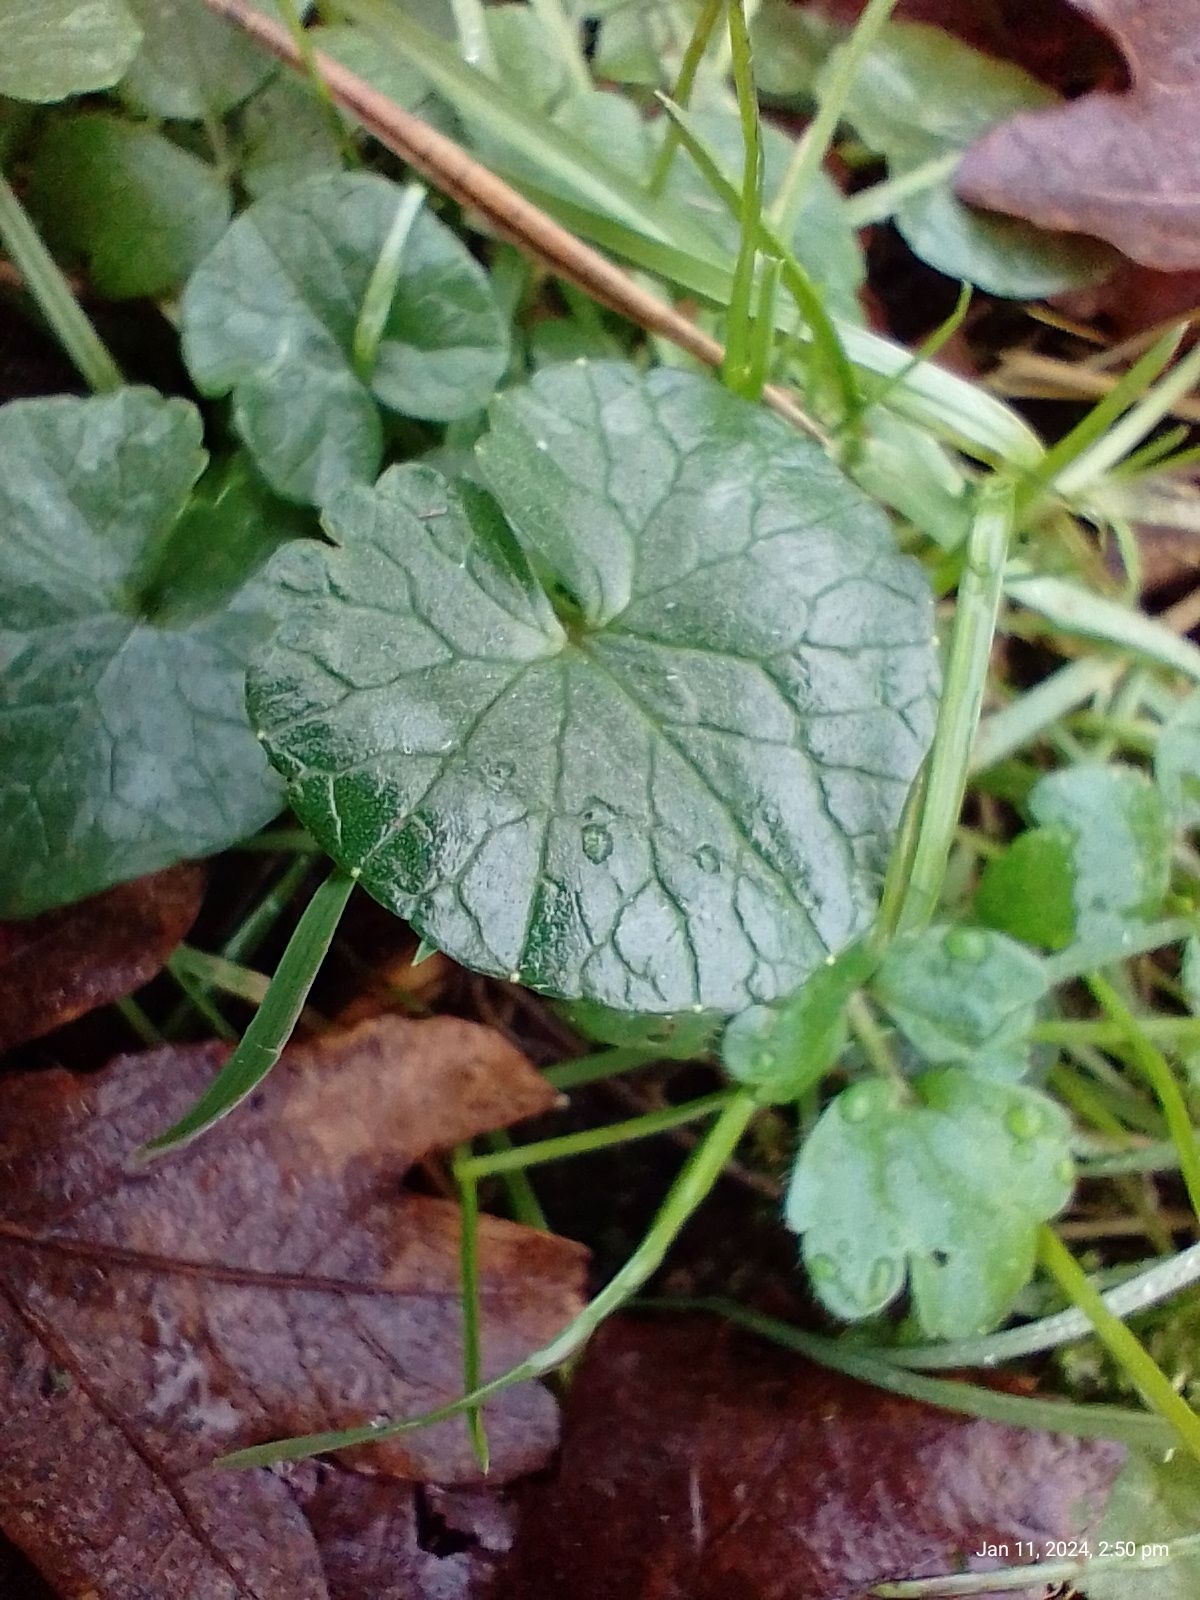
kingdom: Plantae
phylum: Tracheophyta
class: Magnoliopsida
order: Ranunculales
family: Ranunculaceae
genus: Ficaria
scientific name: Ficaria verna
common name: Lesser celandine
